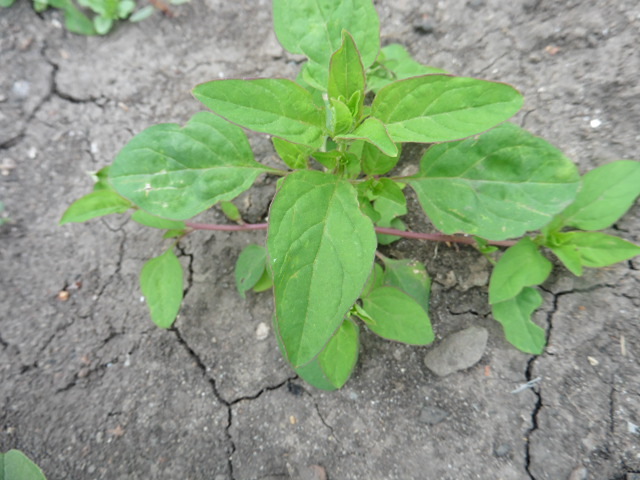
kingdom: Plantae
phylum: Tracheophyta
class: Magnoliopsida
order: Caryophyllales
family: Amaranthaceae
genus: Lipandra
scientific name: Lipandra polysperma
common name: Many-seed goosefoot
